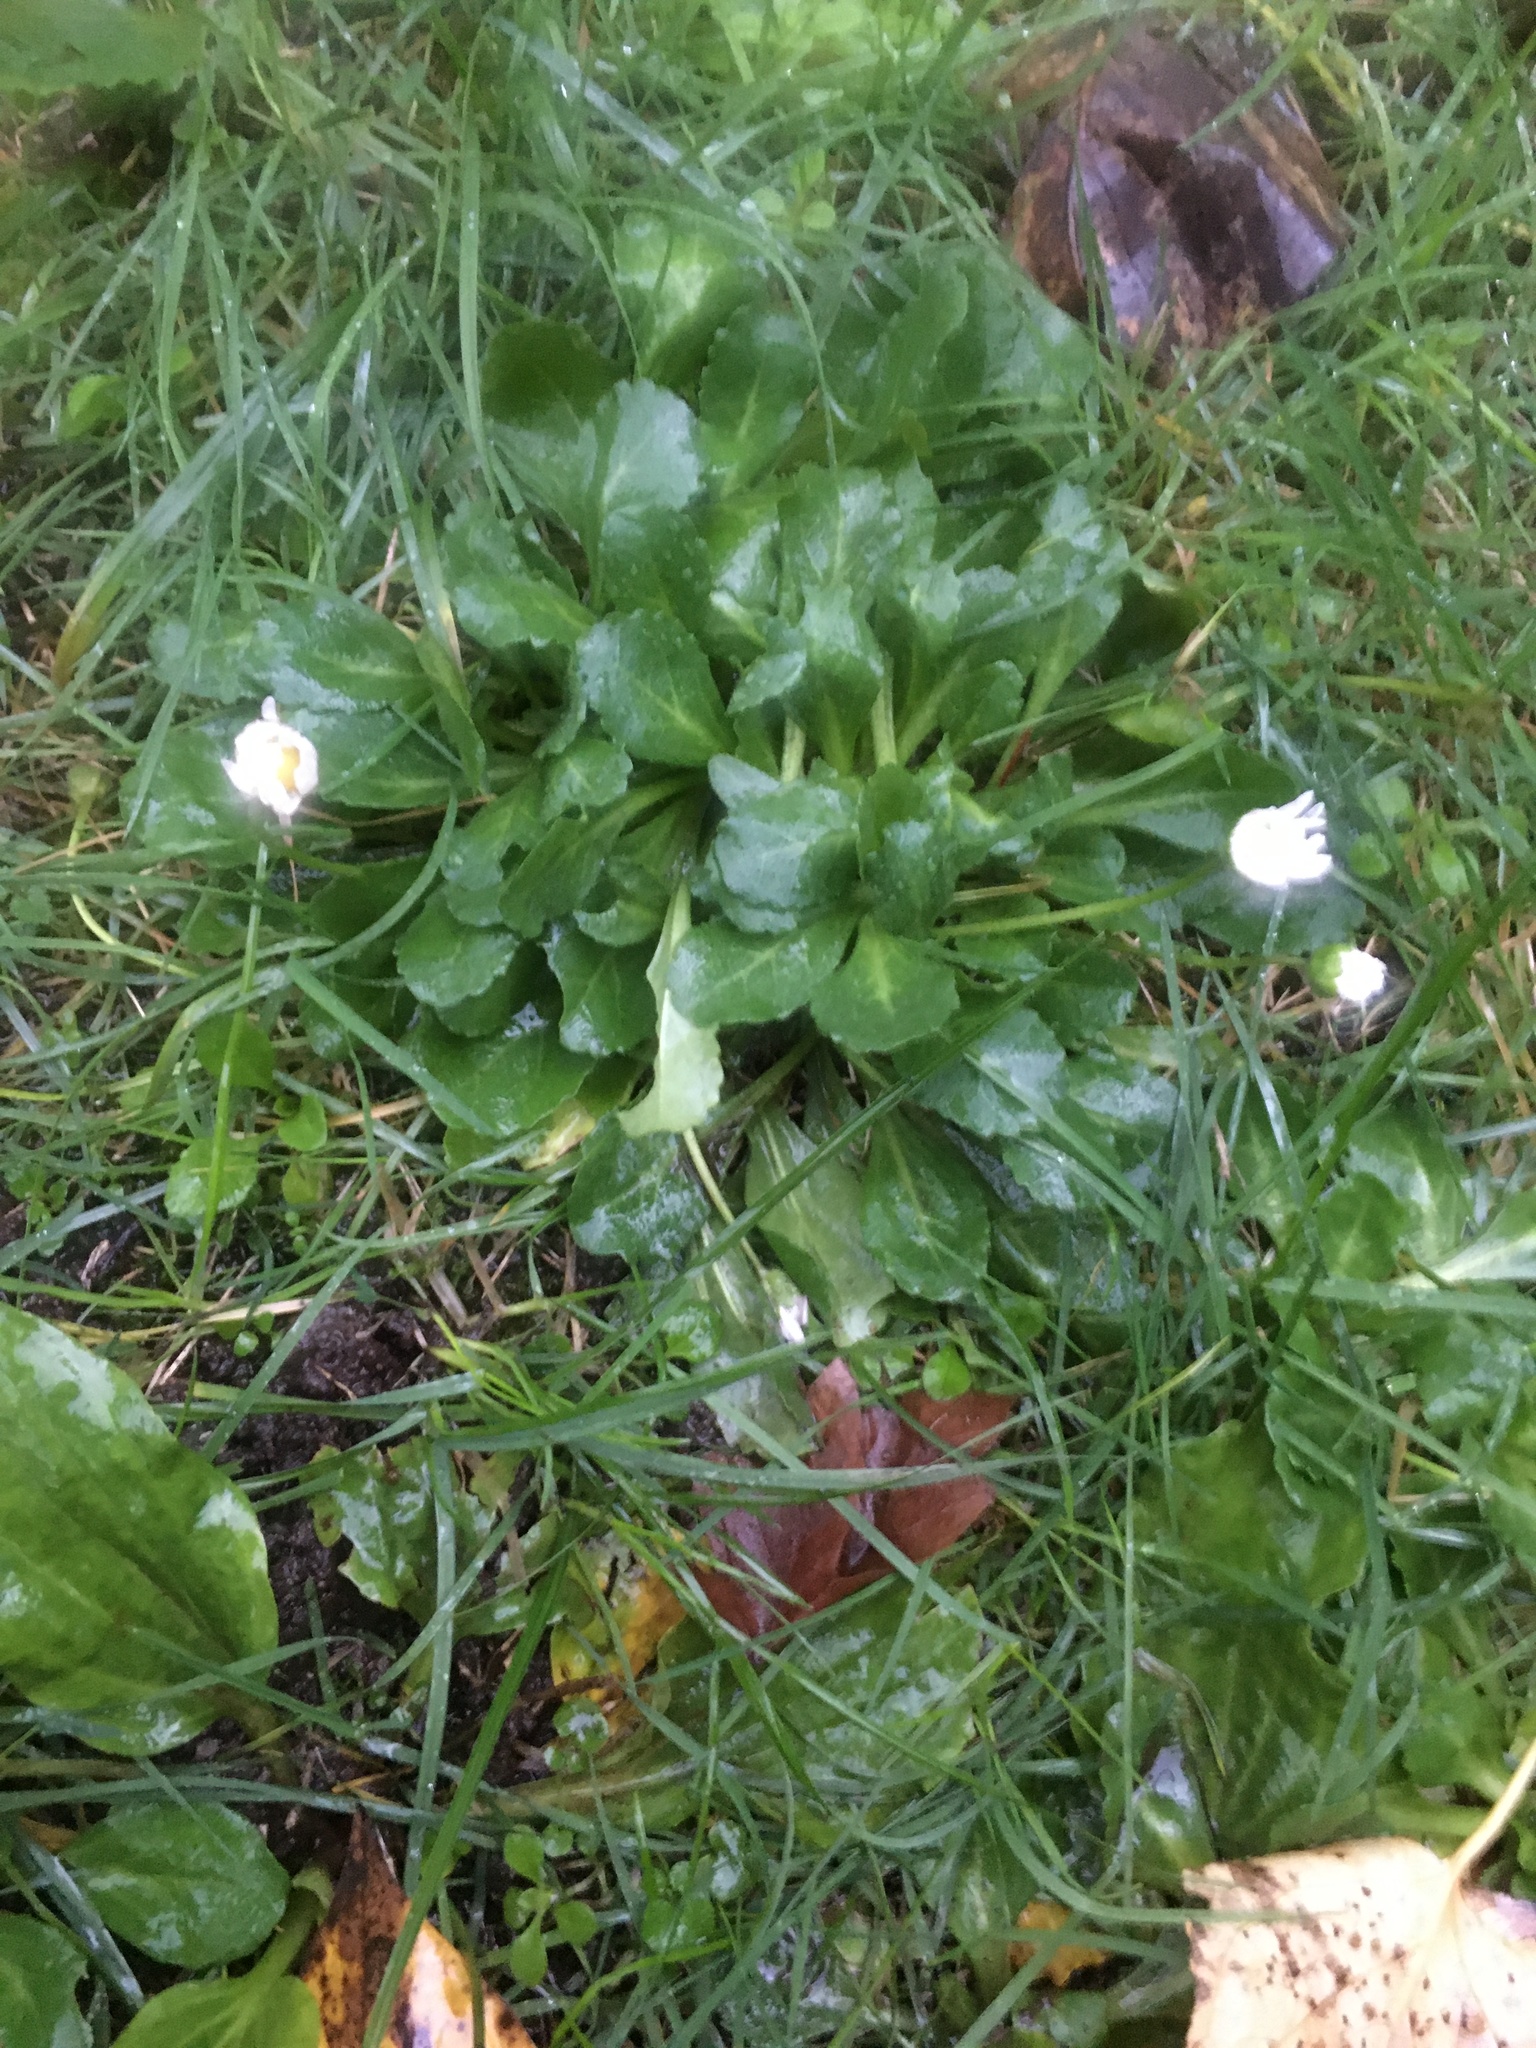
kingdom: Plantae
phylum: Tracheophyta
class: Magnoliopsida
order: Asterales
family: Asteraceae
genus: Bellis
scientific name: Bellis perennis
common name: Lawndaisy
